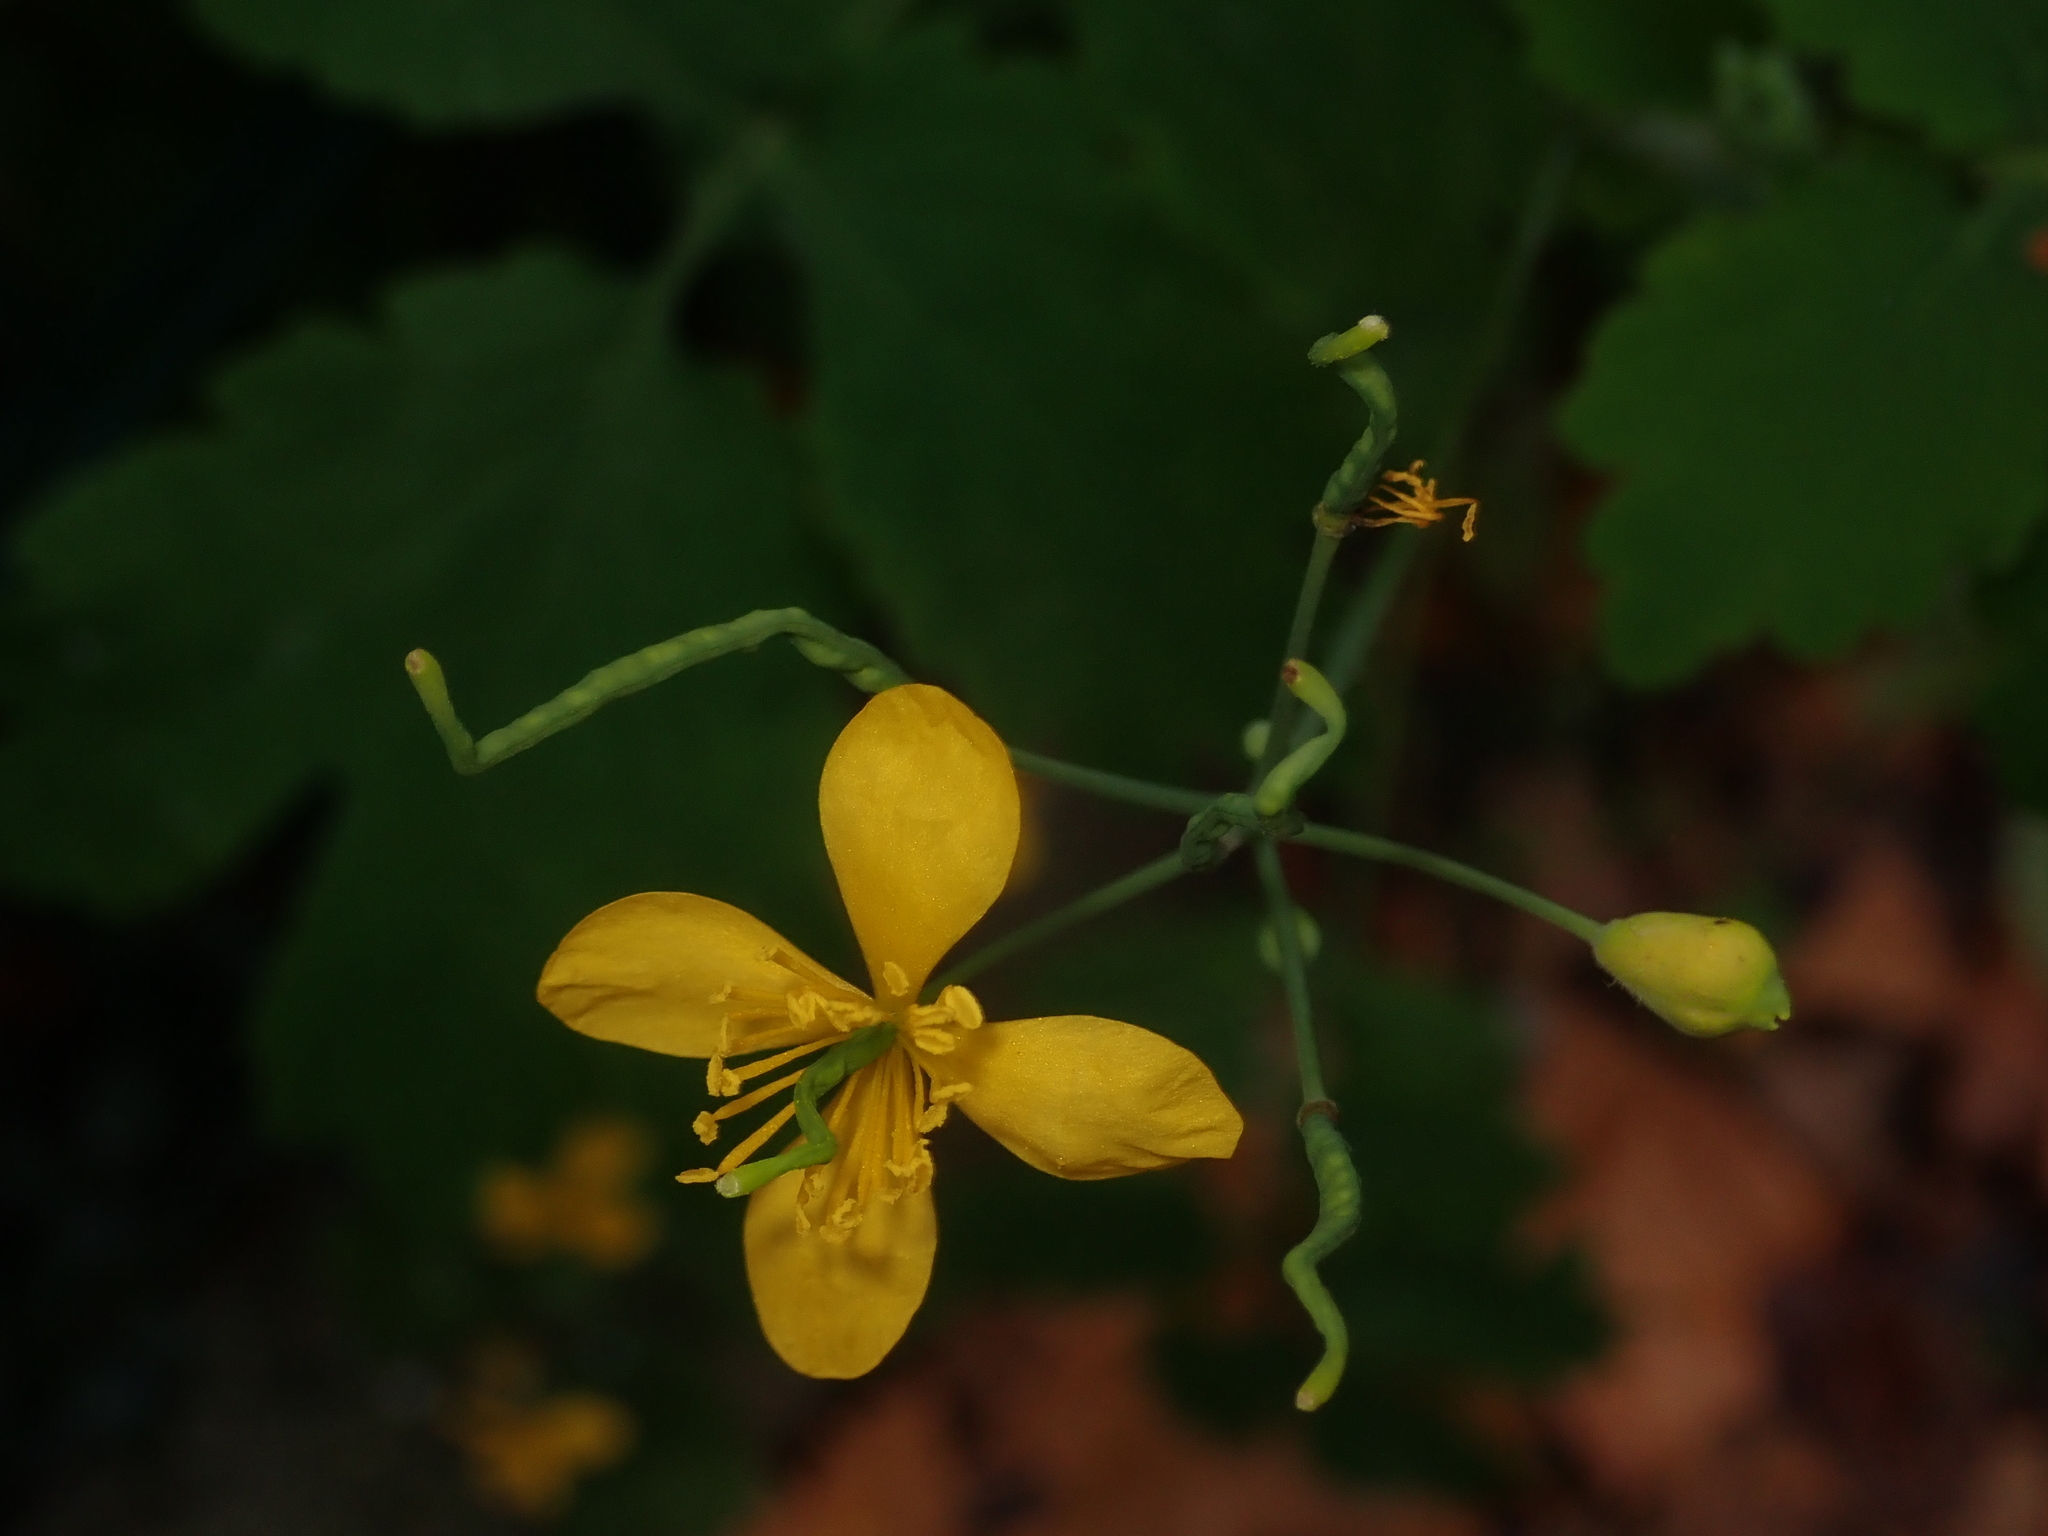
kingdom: Plantae
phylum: Tracheophyta
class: Magnoliopsida
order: Ranunculales
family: Papaveraceae
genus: Chelidonium
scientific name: Chelidonium majus
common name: Greater celandine
